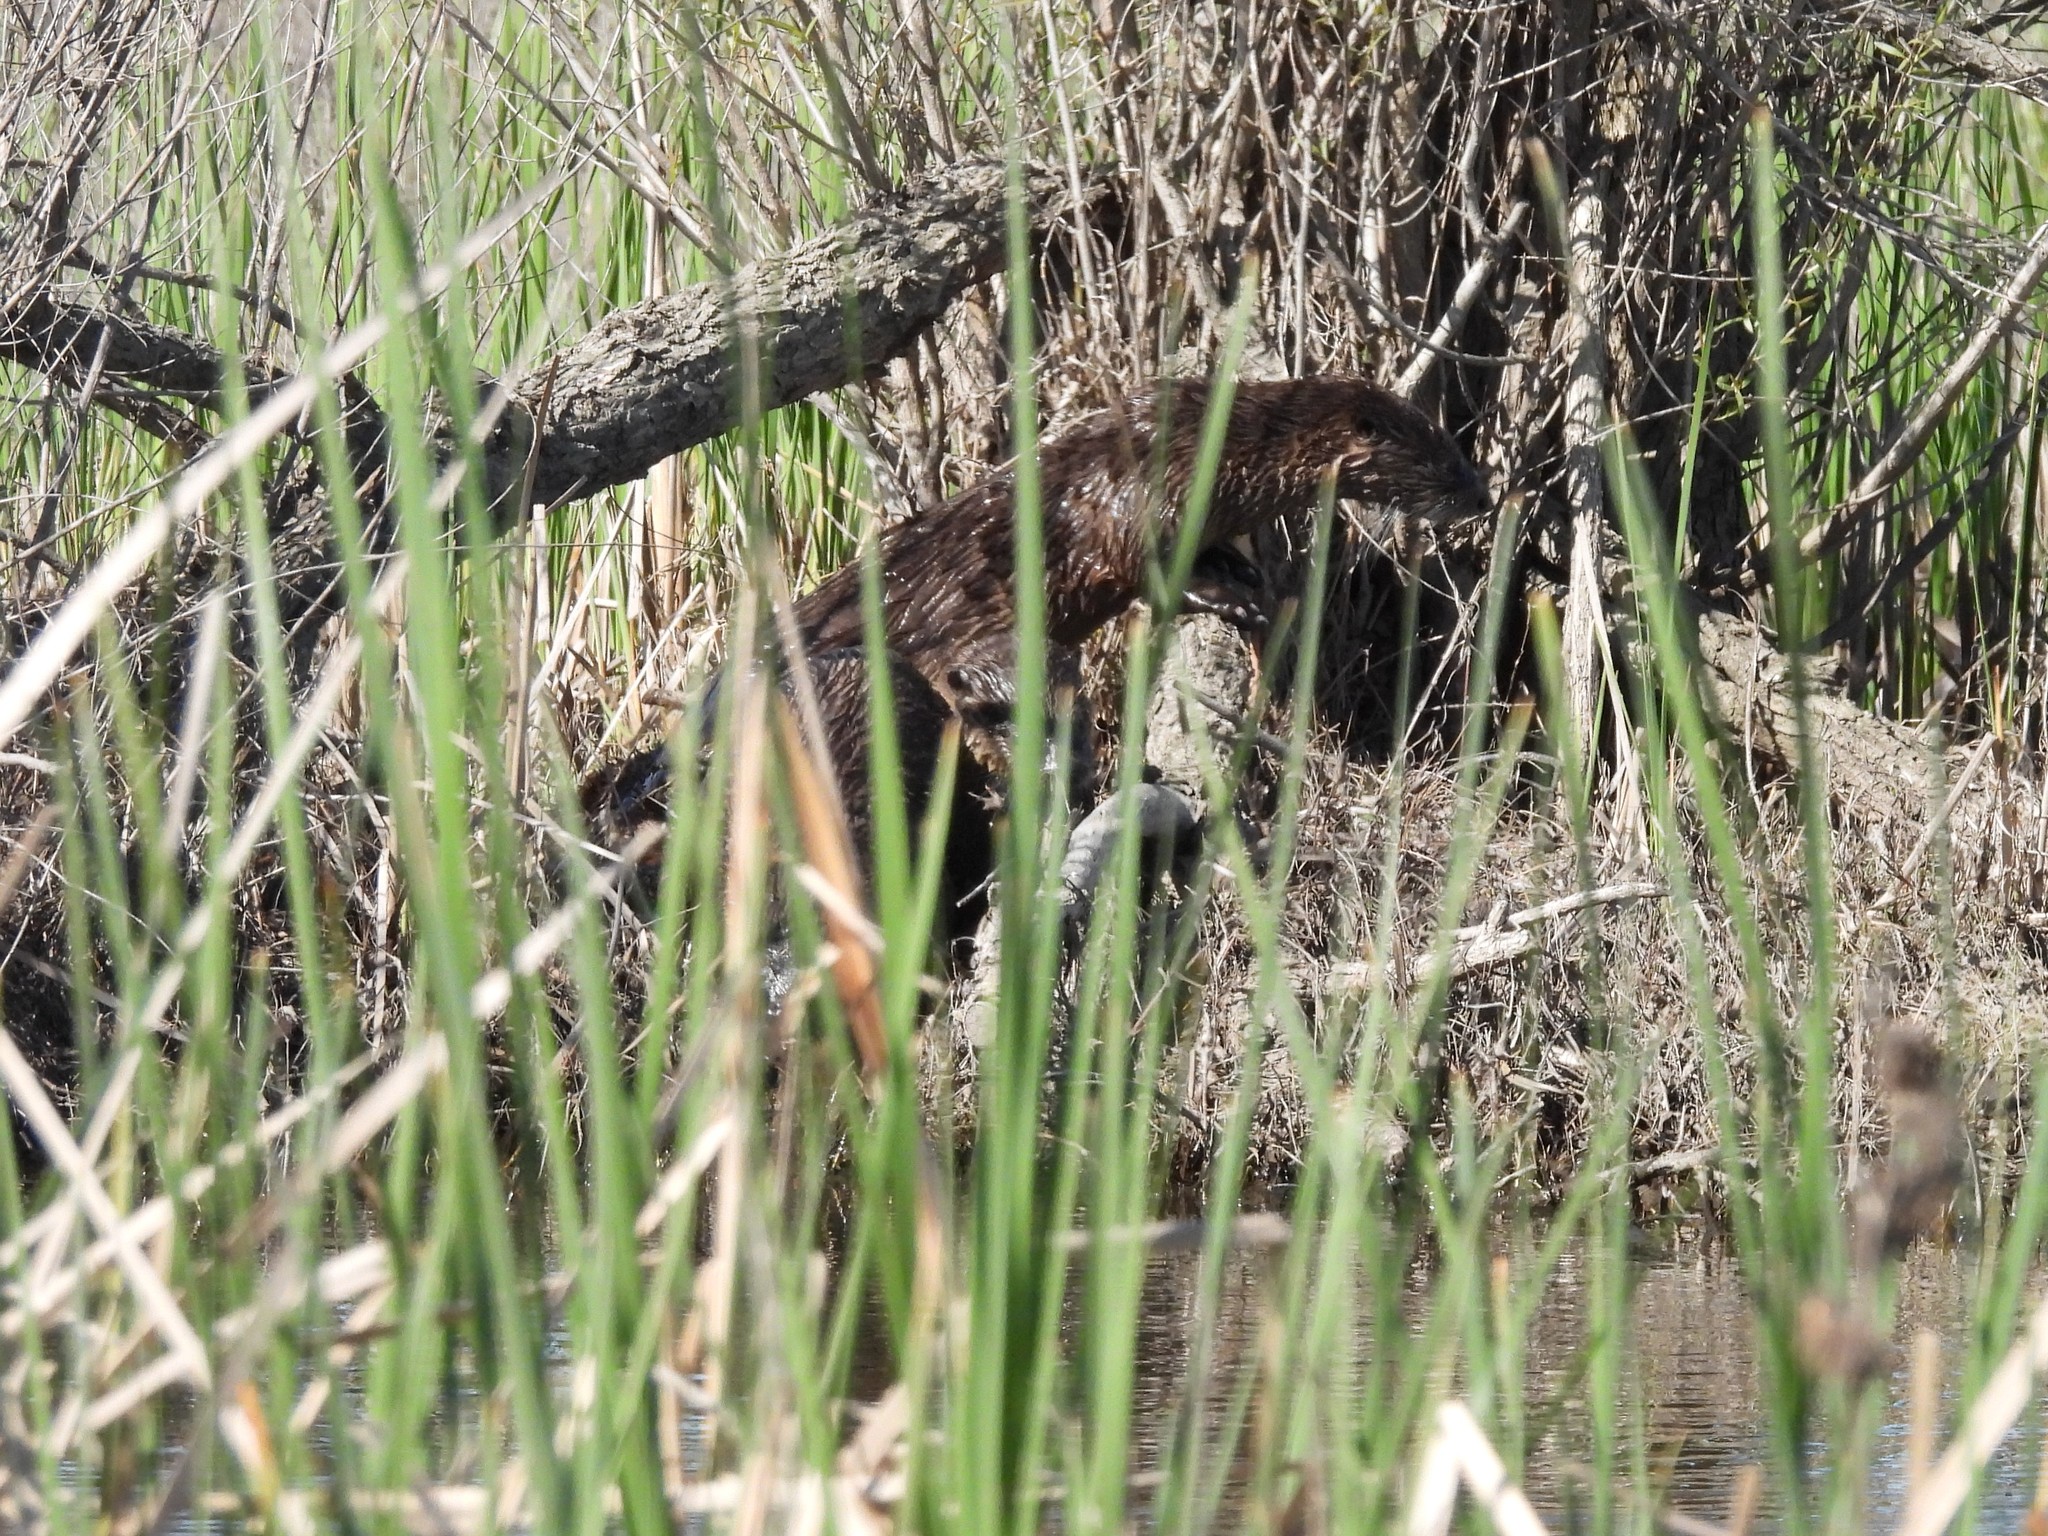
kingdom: Animalia
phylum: Chordata
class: Mammalia
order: Carnivora
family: Mustelidae
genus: Lontra
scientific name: Lontra canadensis
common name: North american river otter
